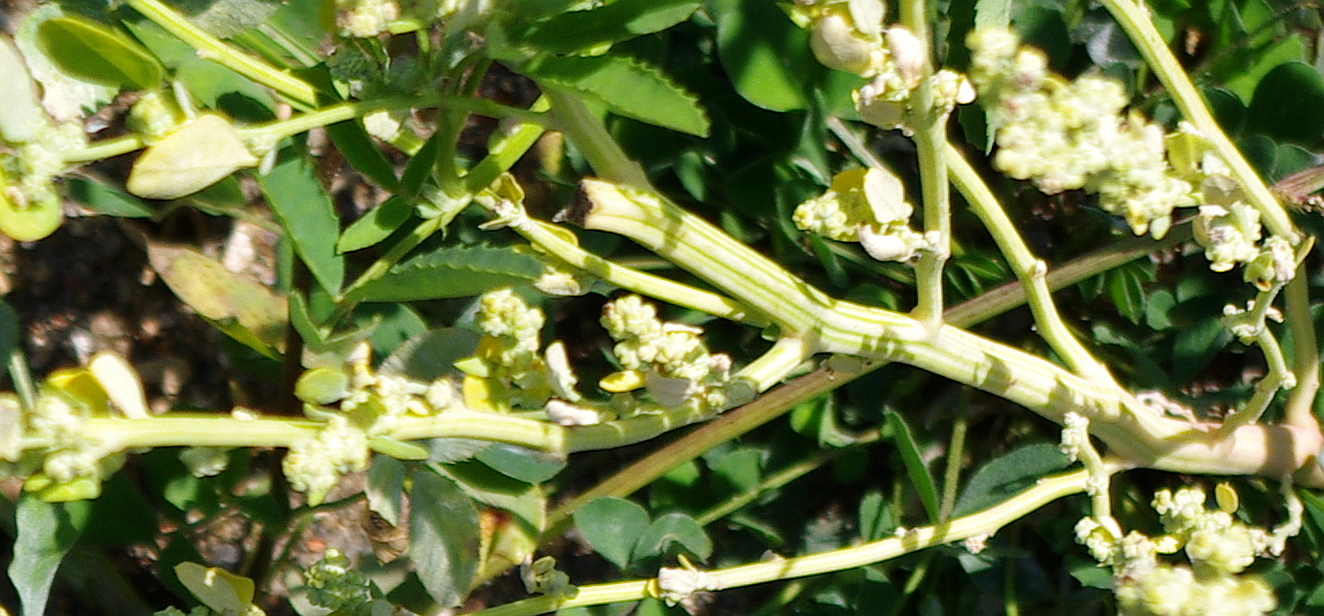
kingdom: Plantae
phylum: Tracheophyta
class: Magnoliopsida
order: Caryophyllales
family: Amaranthaceae
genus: Chenopodium
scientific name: Chenopodium album
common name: Fat-hen
